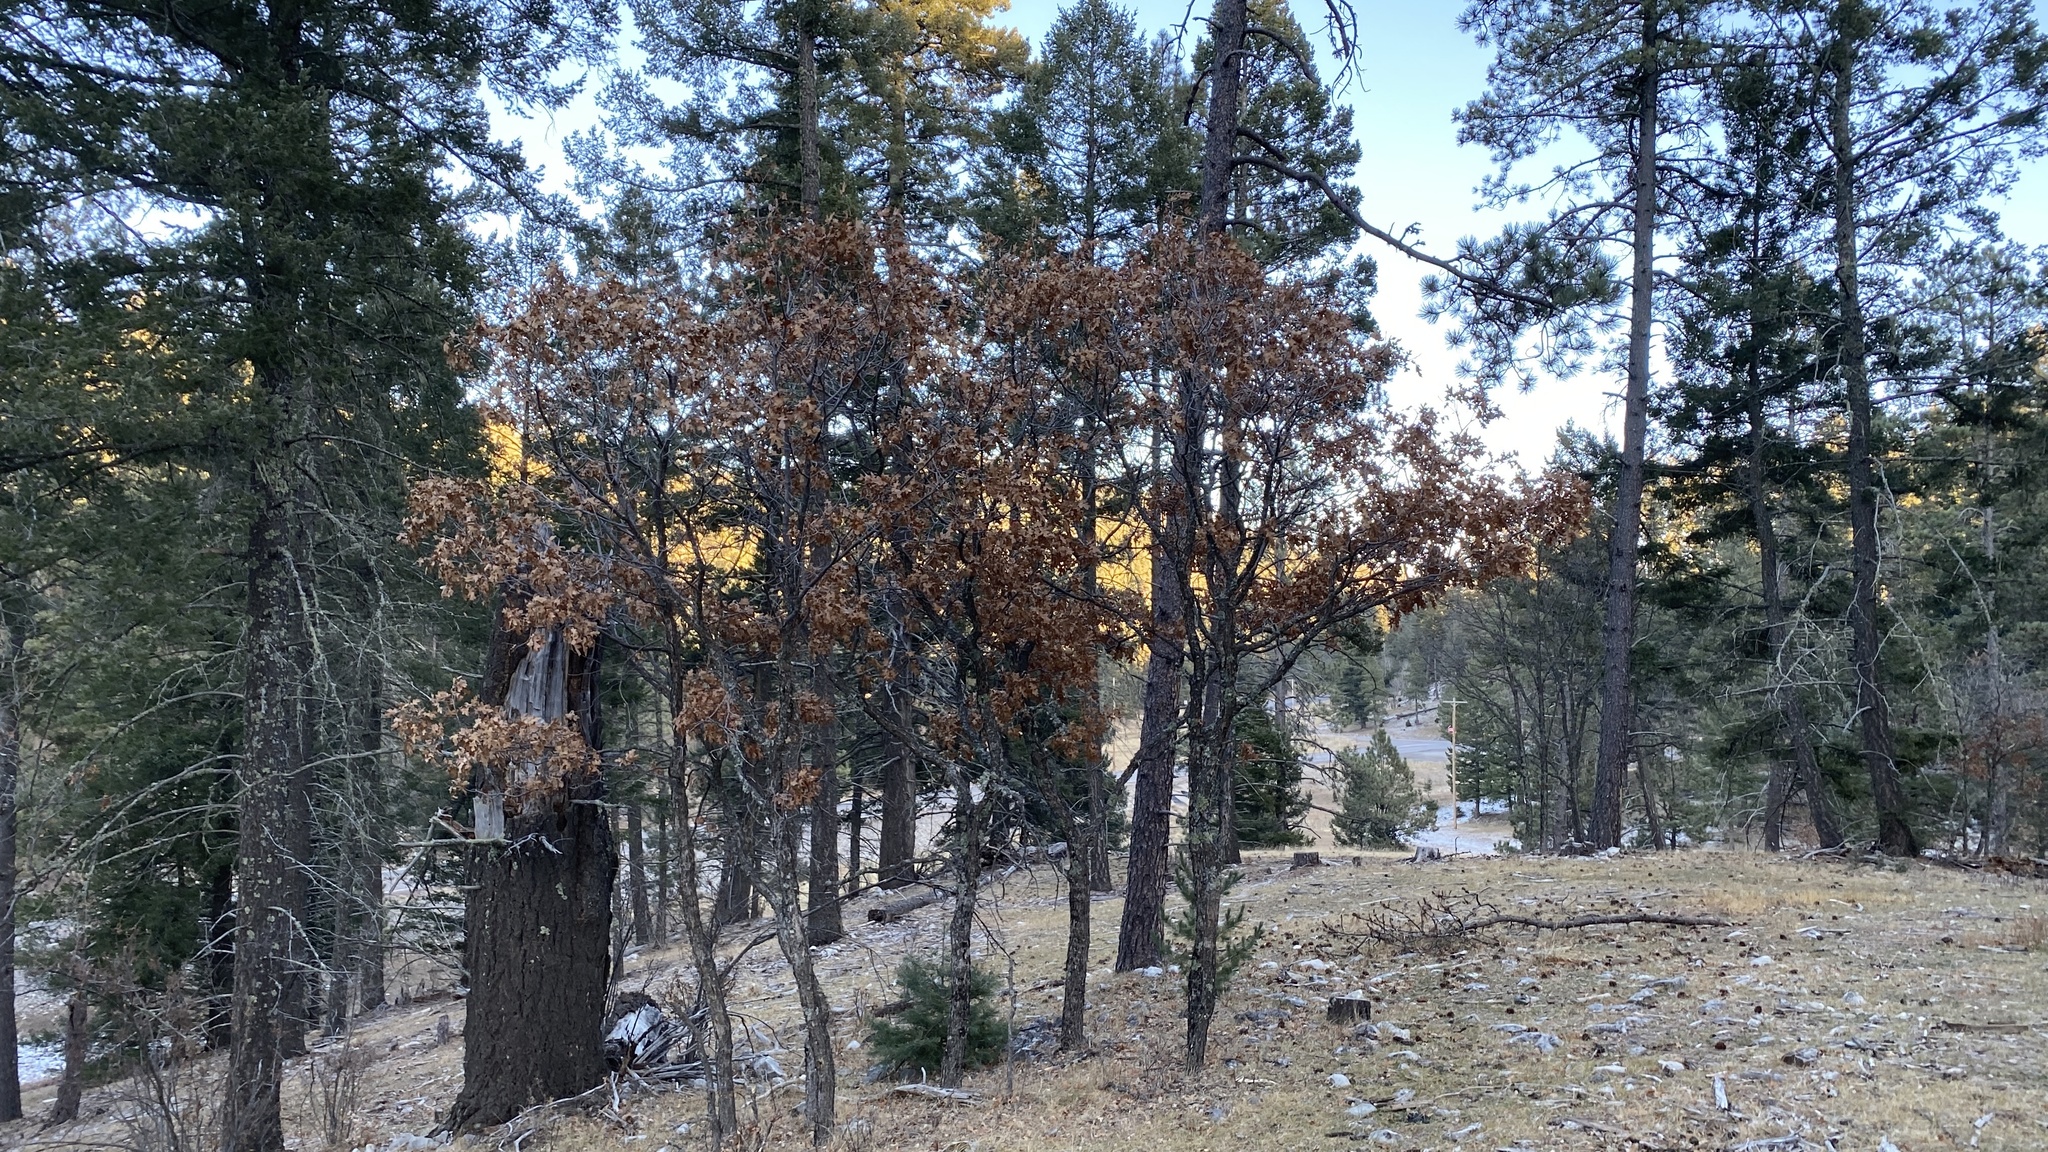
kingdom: Plantae
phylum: Tracheophyta
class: Magnoliopsida
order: Fagales
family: Fagaceae
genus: Quercus
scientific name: Quercus gambelii
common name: Gambel oak
